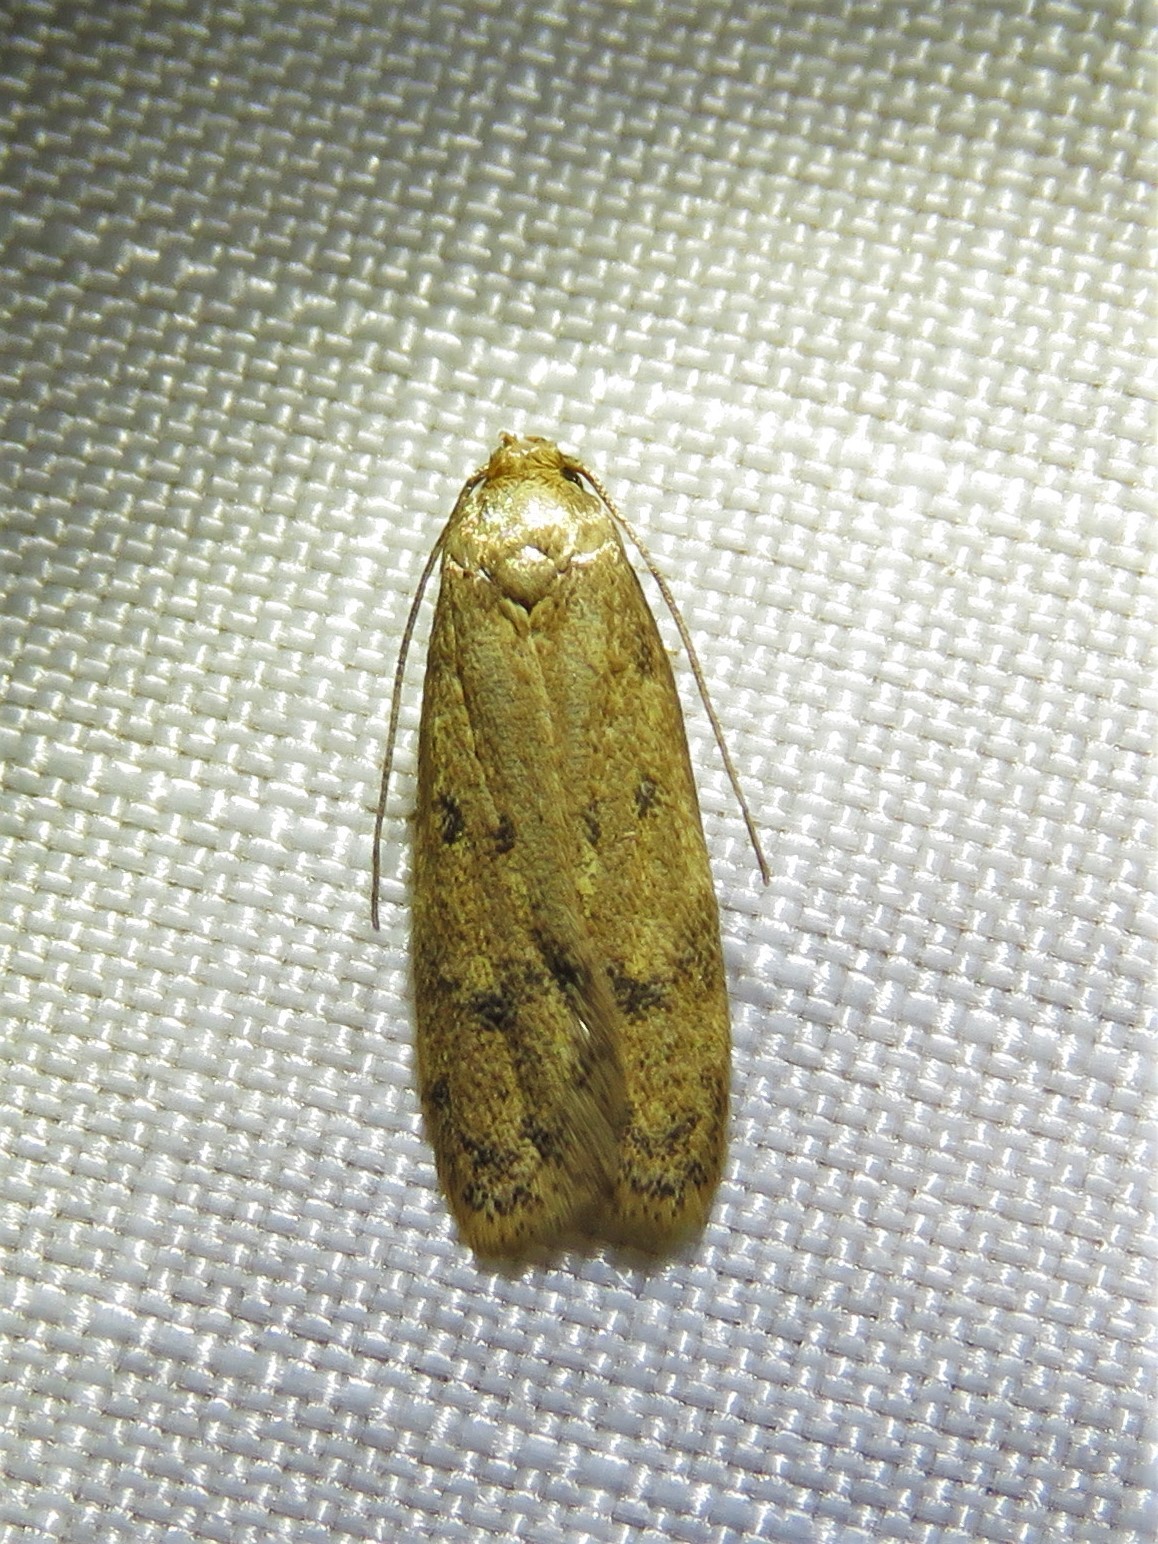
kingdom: Animalia
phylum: Arthropoda
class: Insecta
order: Lepidoptera
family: Autostichidae
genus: Gerdana
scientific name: Gerdana caritella
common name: Gerdana moth
